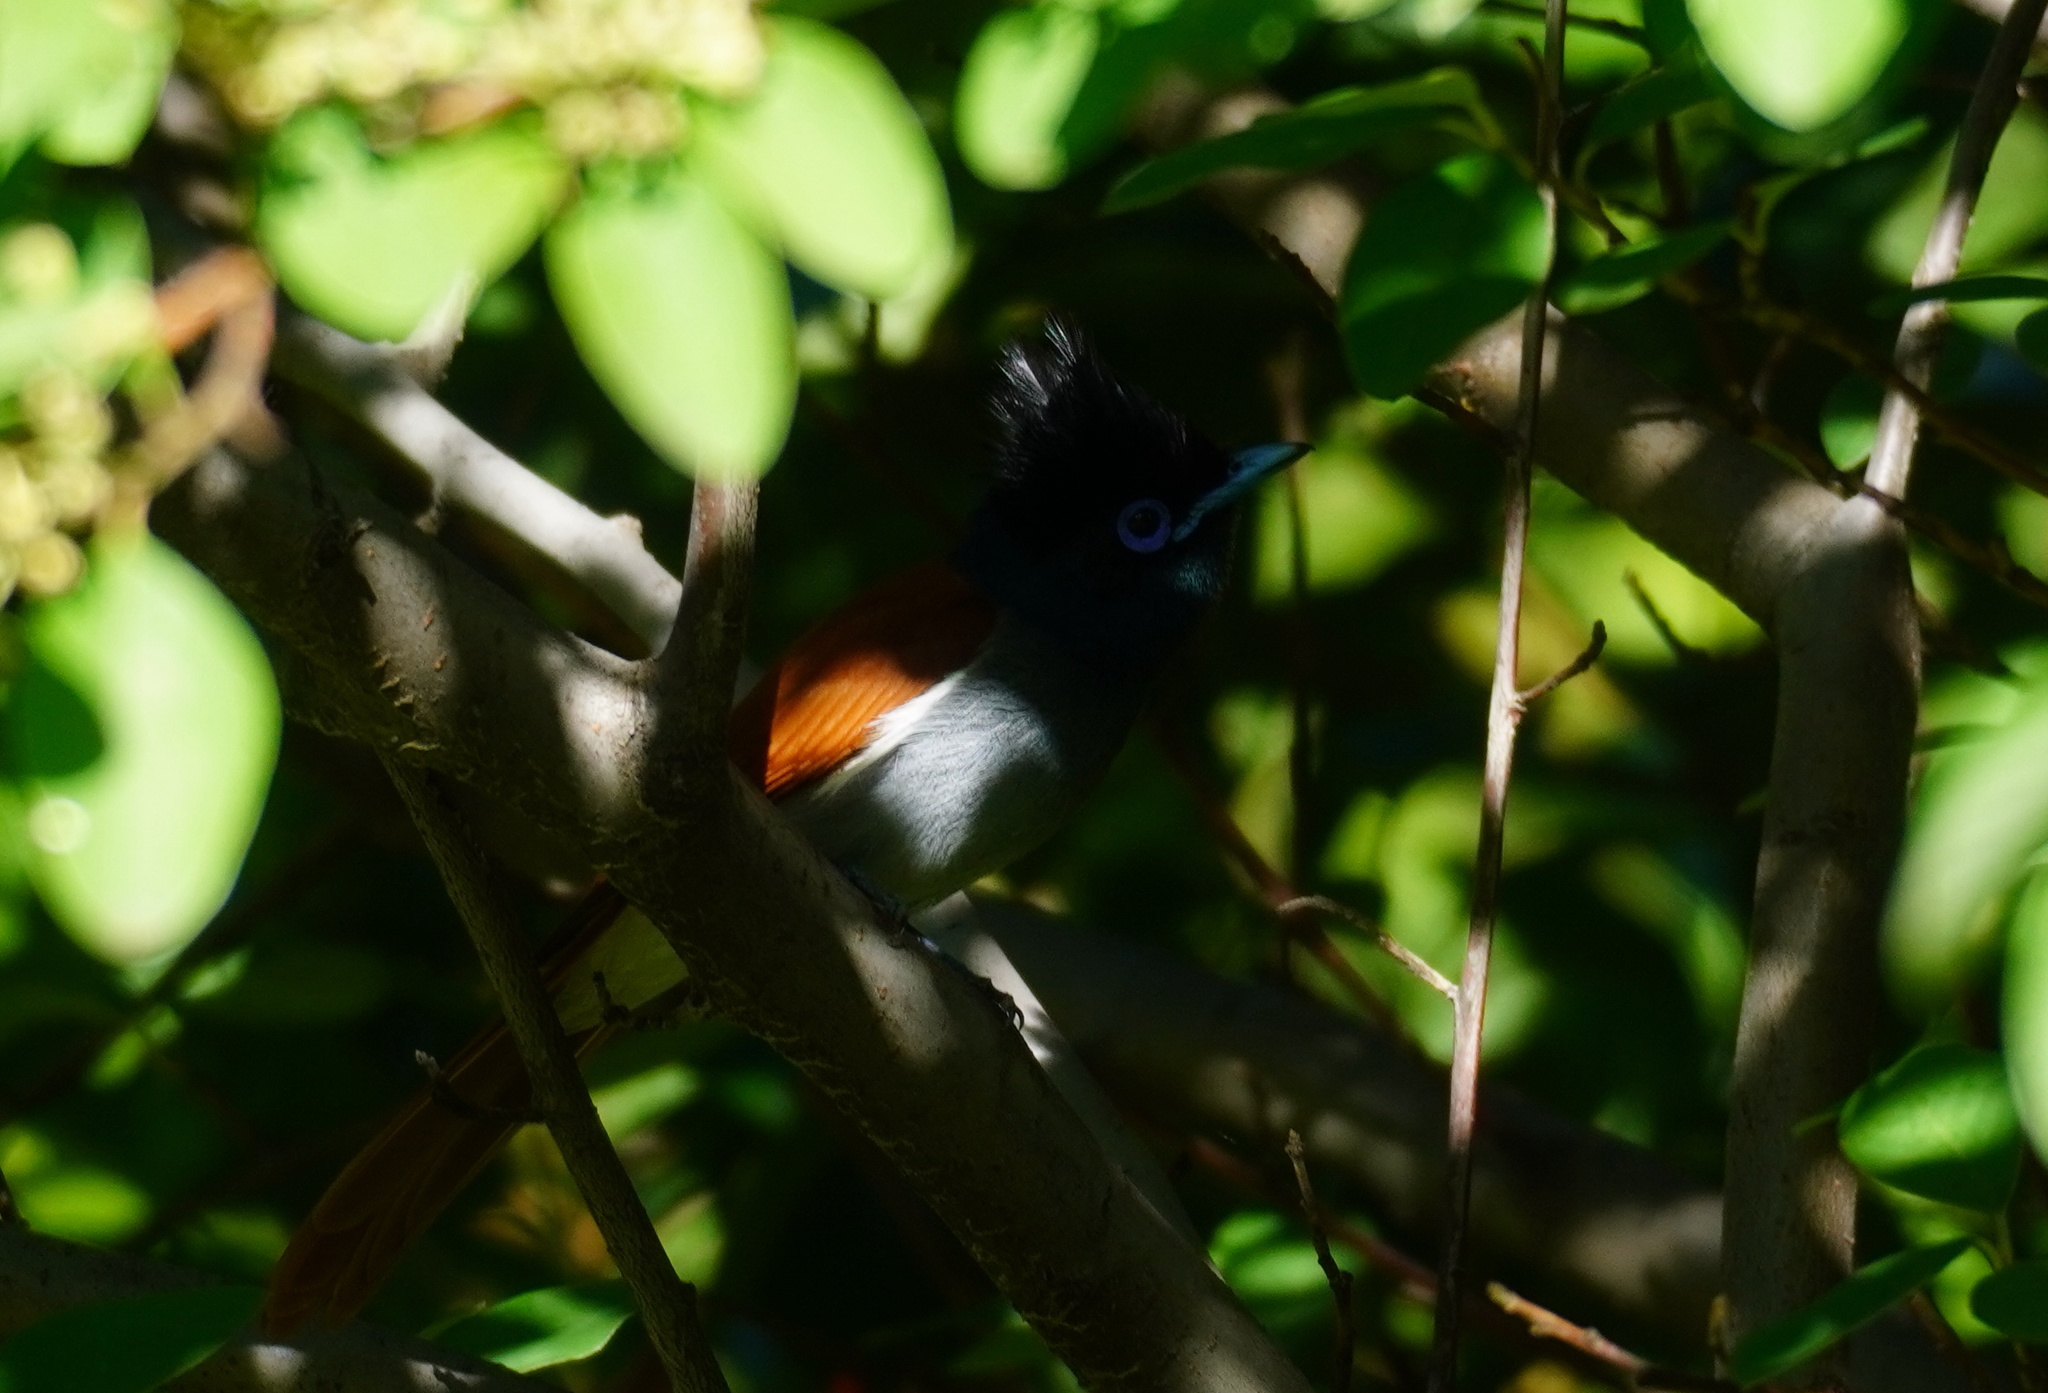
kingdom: Animalia
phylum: Chordata
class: Aves
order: Passeriformes
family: Monarchidae
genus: Terpsiphone
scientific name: Terpsiphone viridis
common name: African paradise flycatcher
